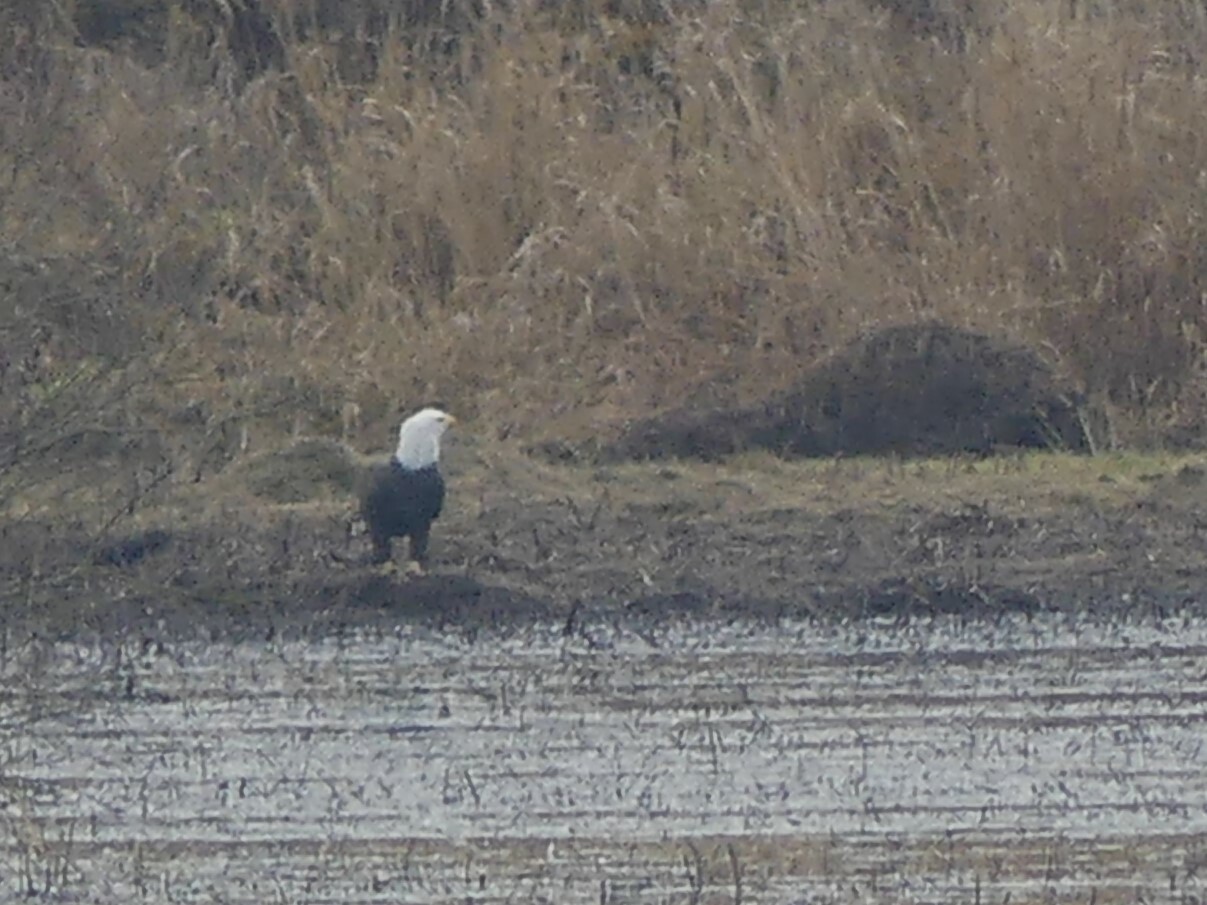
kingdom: Animalia
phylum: Chordata
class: Aves
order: Accipitriformes
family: Accipitridae
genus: Haliaeetus
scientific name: Haliaeetus leucocephalus
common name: Bald eagle
